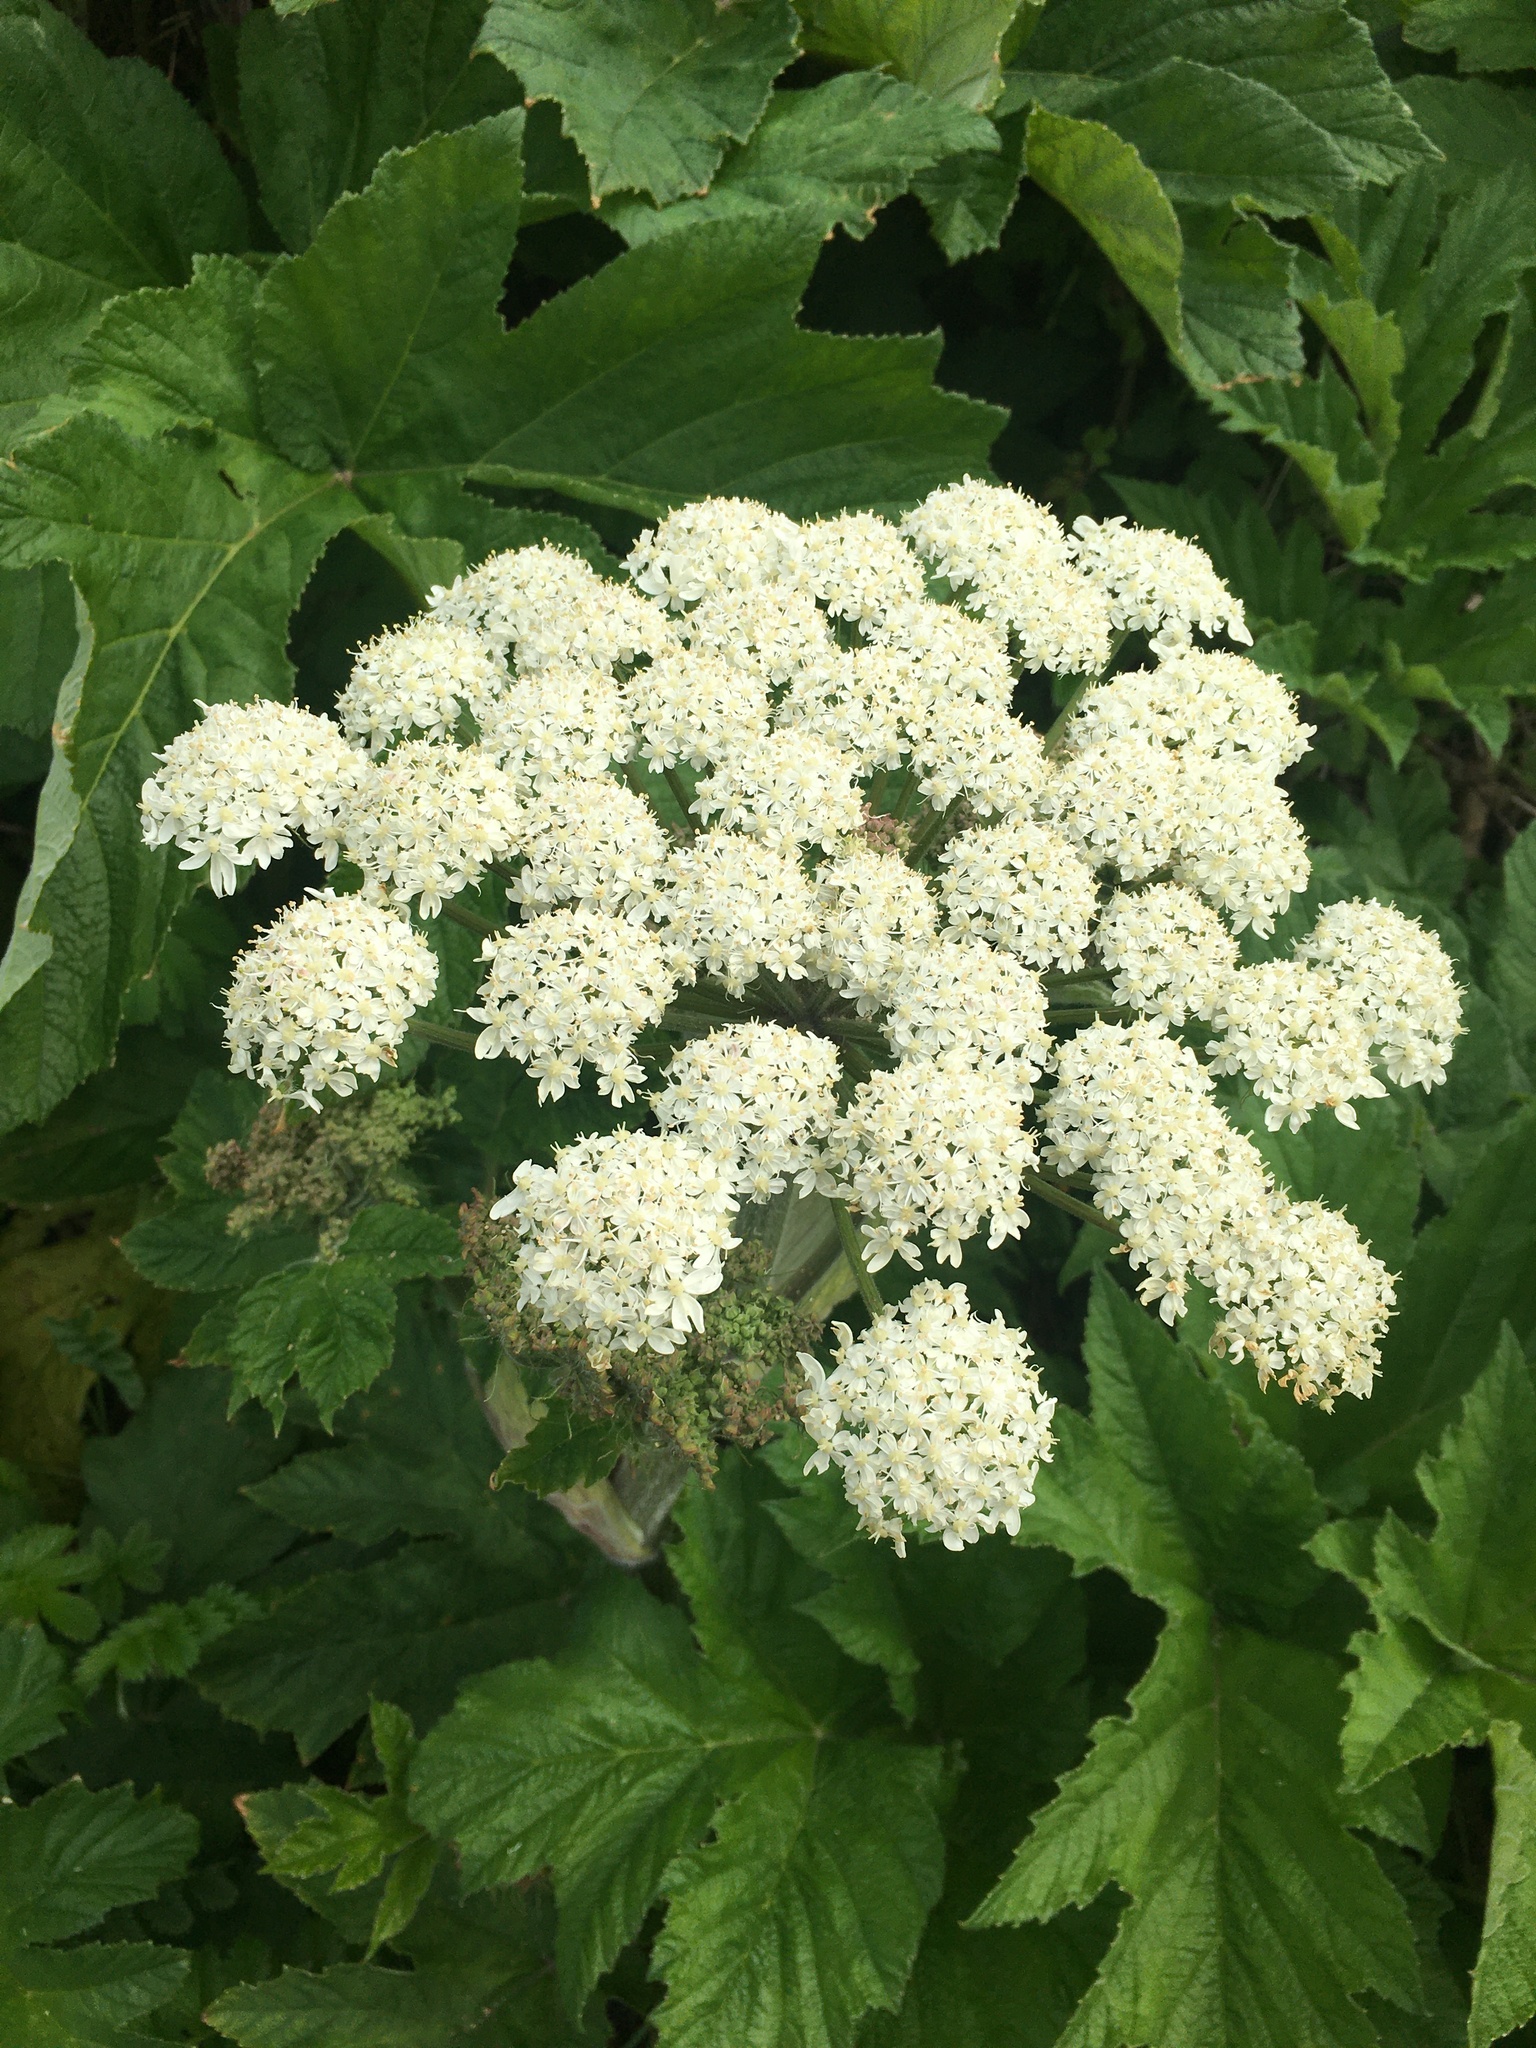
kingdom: Plantae
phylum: Tracheophyta
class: Magnoliopsida
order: Apiales
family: Apiaceae
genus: Heracleum
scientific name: Heracleum maximum
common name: American cow parsnip
